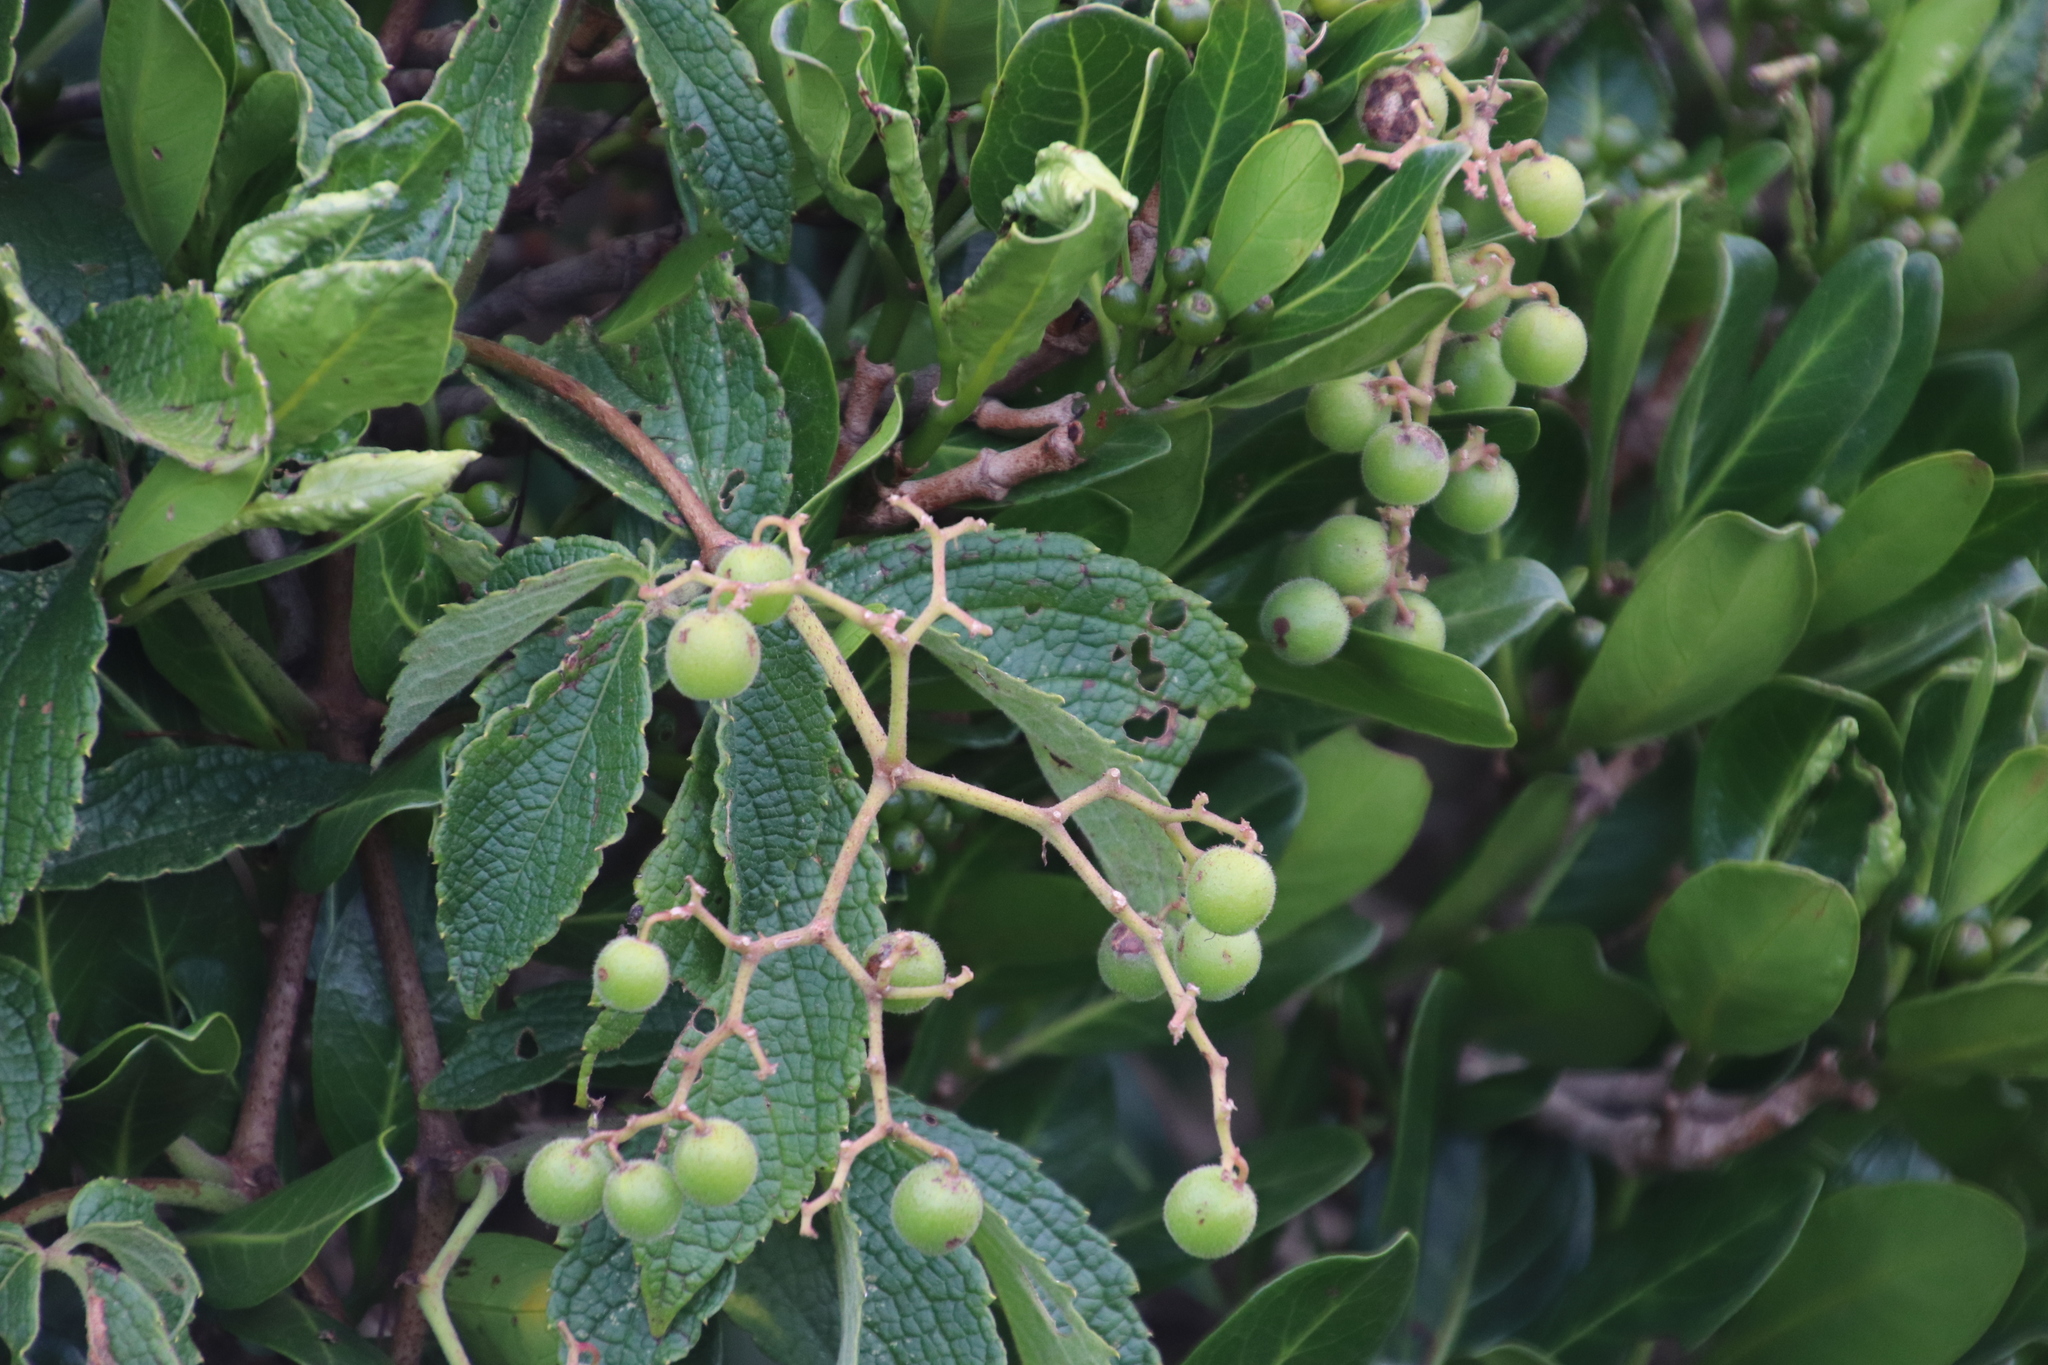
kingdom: Plantae
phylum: Tracheophyta
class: Magnoliopsida
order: Vitales
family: Vitaceae
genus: Cyphostemma
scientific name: Cyphostemma cirrhosum
